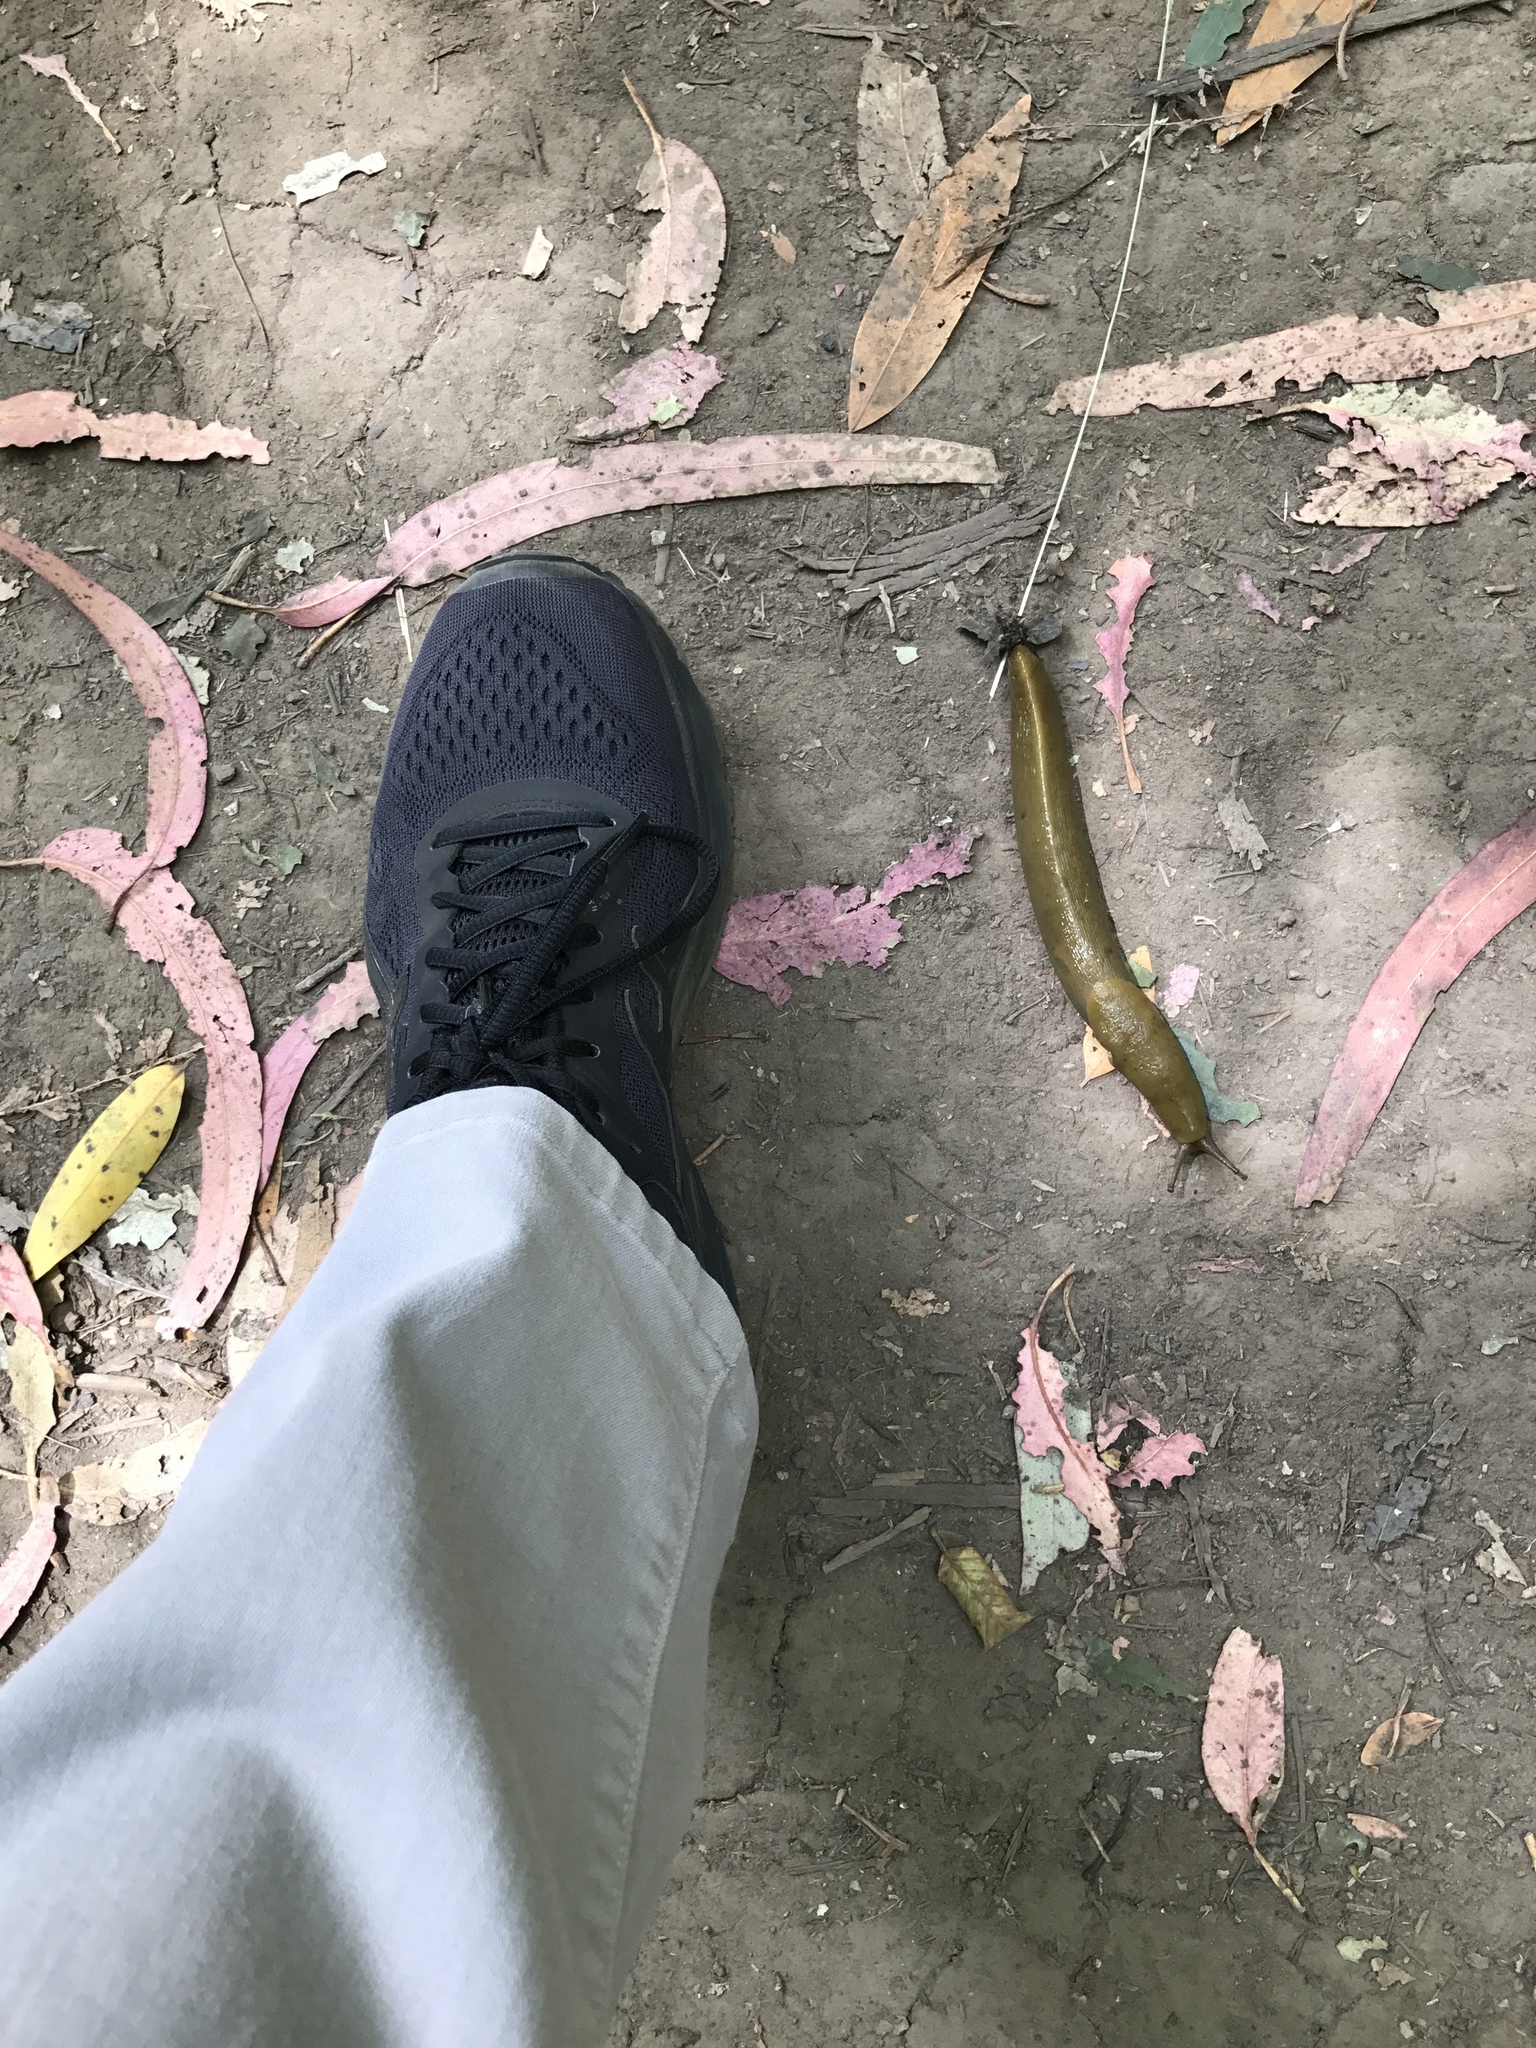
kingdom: Animalia
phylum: Mollusca
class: Gastropoda
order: Stylommatophora
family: Ariolimacidae
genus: Ariolimax
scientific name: Ariolimax buttoni
